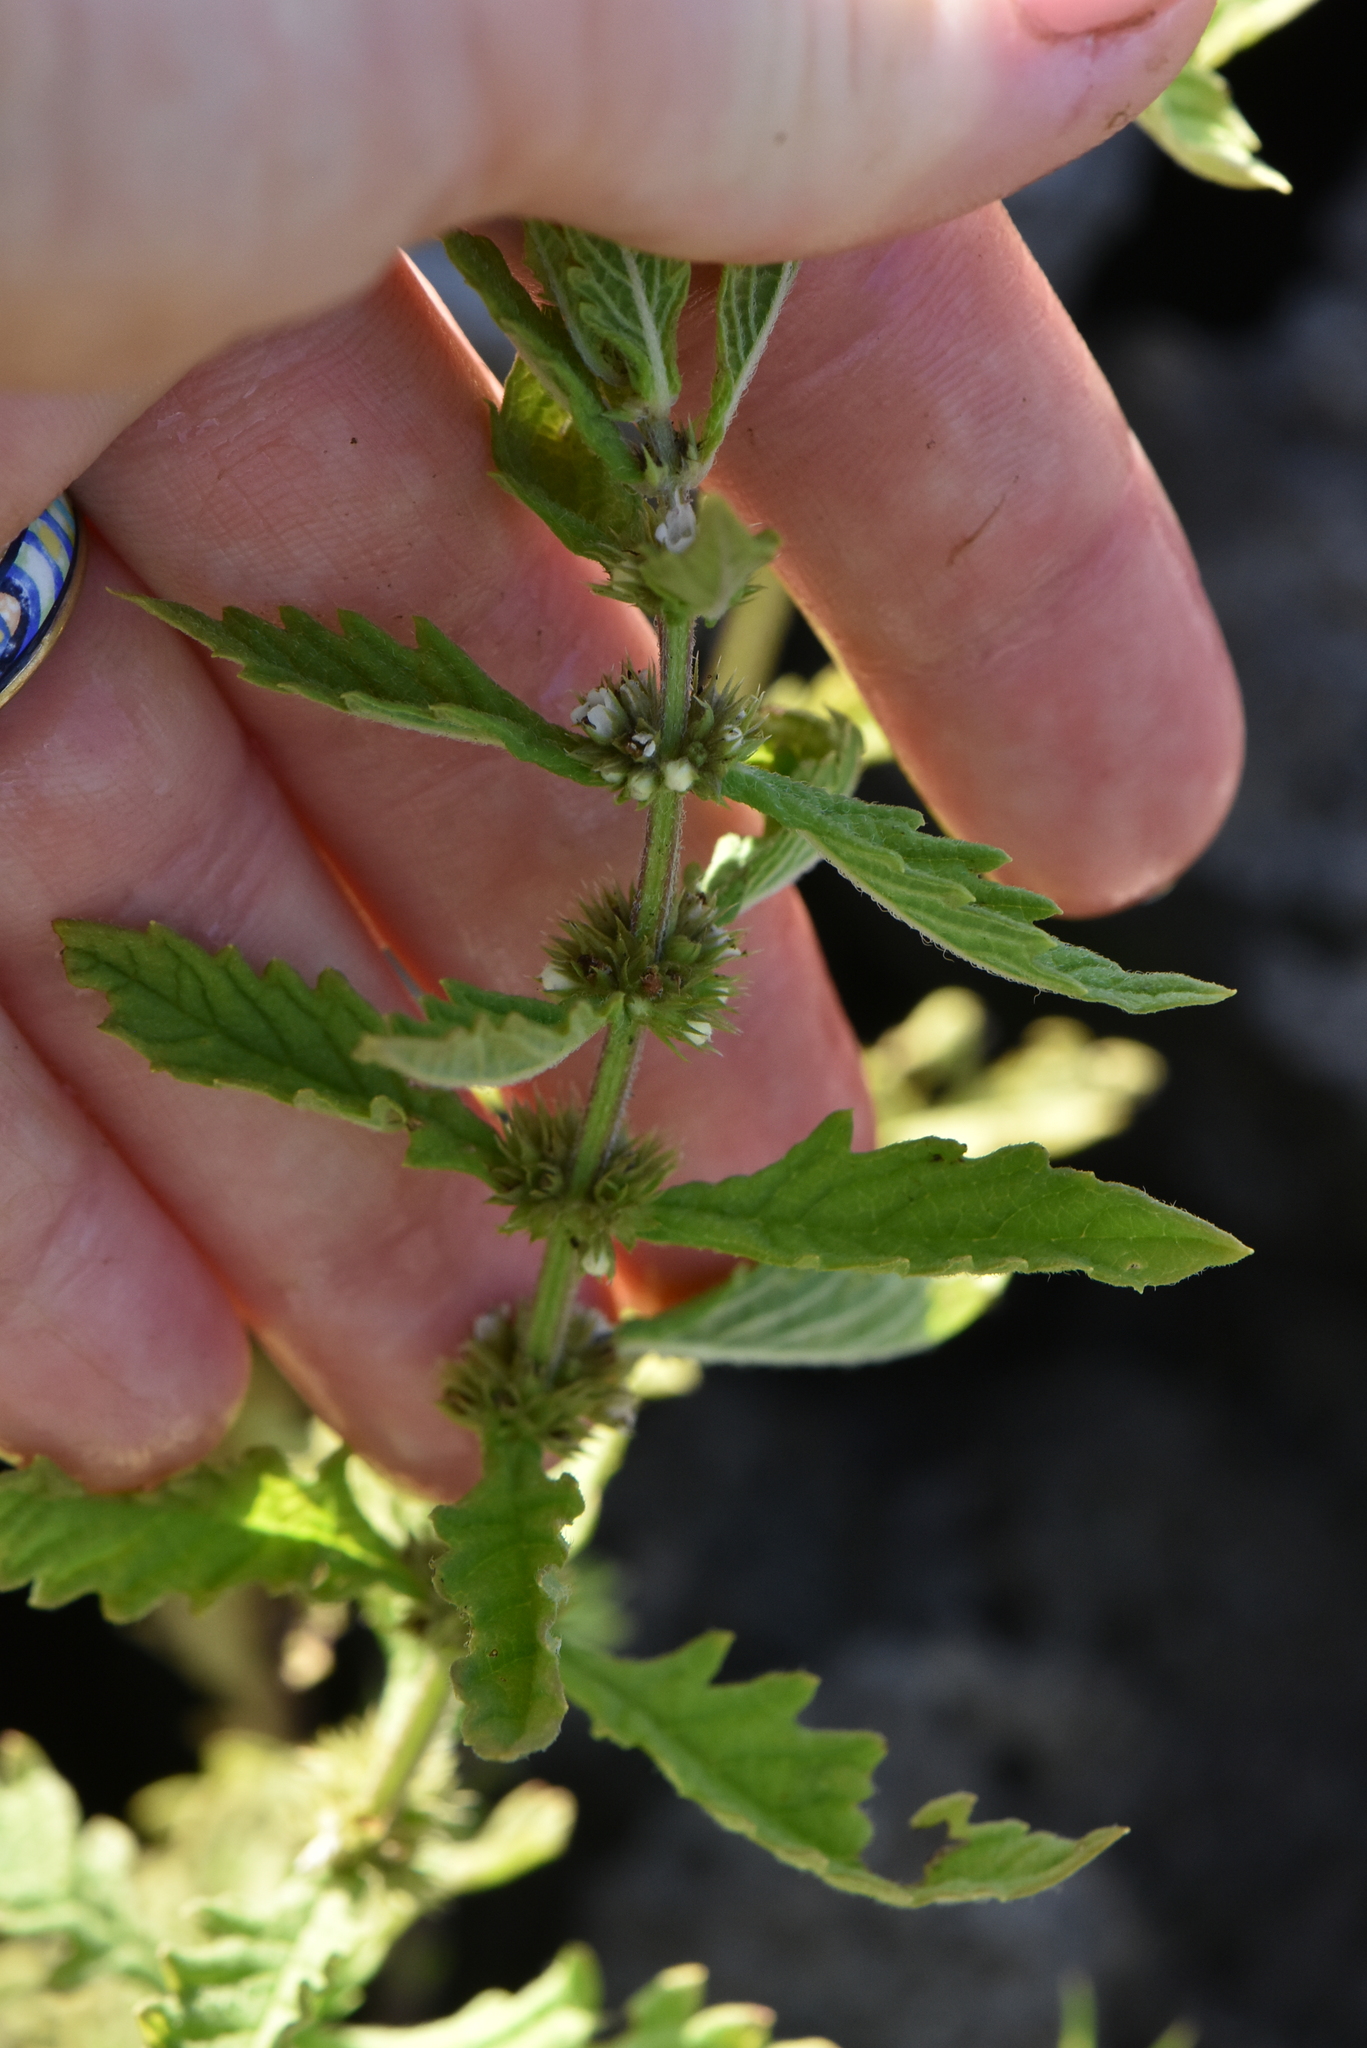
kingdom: Plantae
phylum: Tracheophyta
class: Magnoliopsida
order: Lamiales
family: Lamiaceae
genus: Lycopus
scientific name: Lycopus europaeus
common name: European bugleweed
